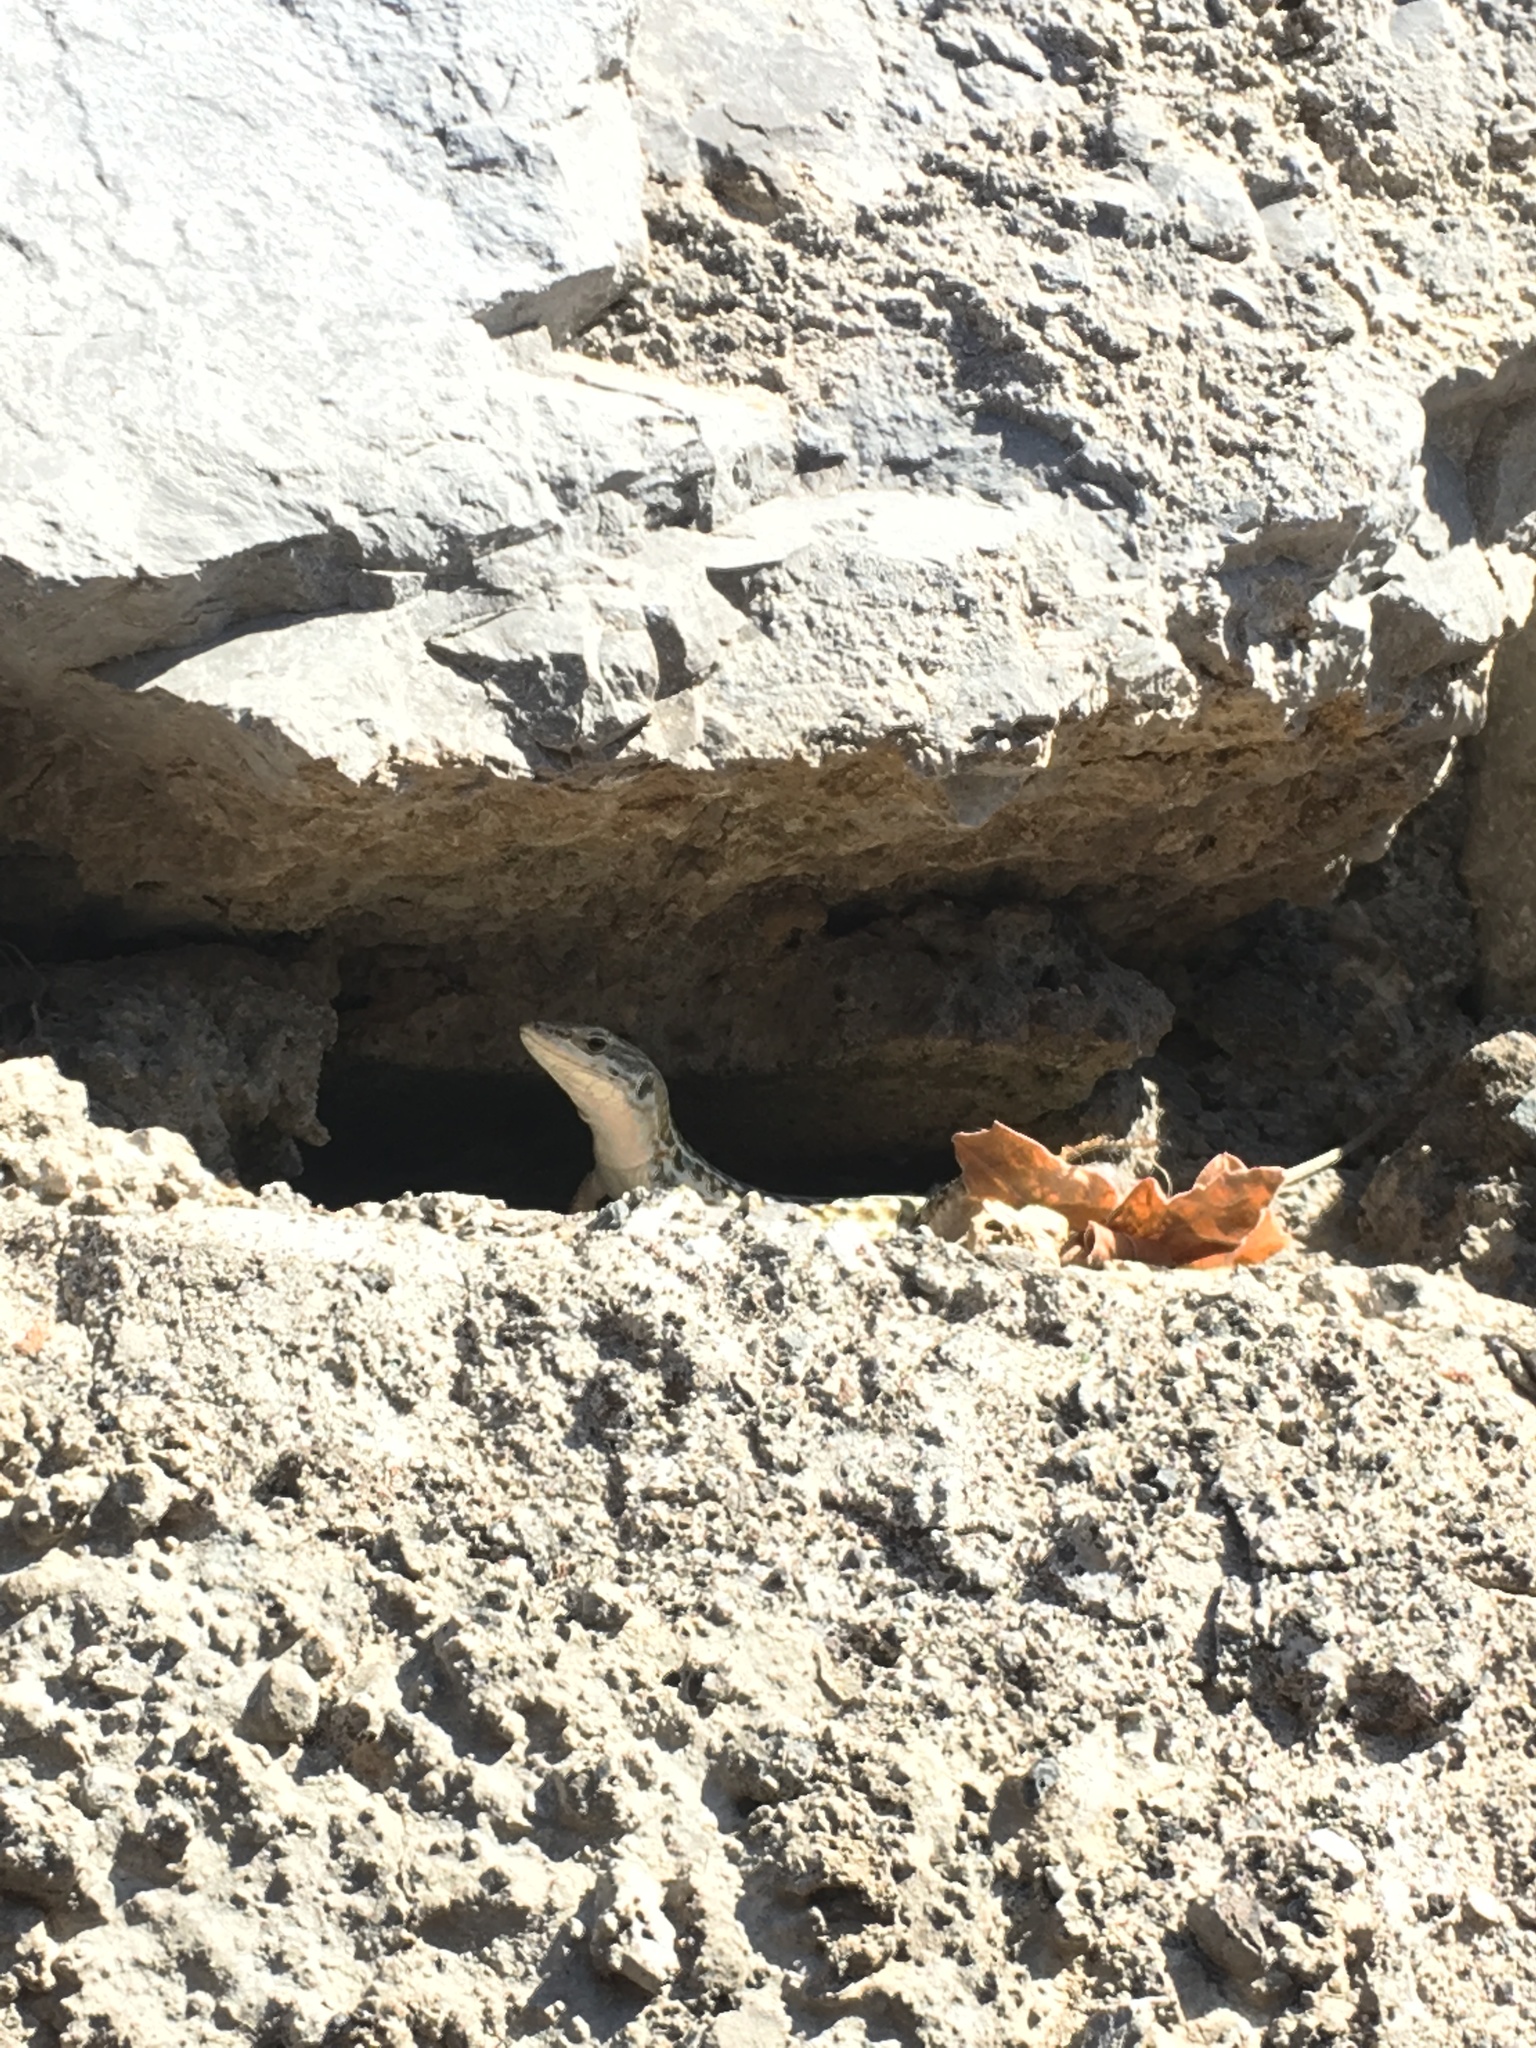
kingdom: Animalia
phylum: Chordata
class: Squamata
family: Lacertidae
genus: Podarcis
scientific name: Podarcis siculus
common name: Italian wall lizard
